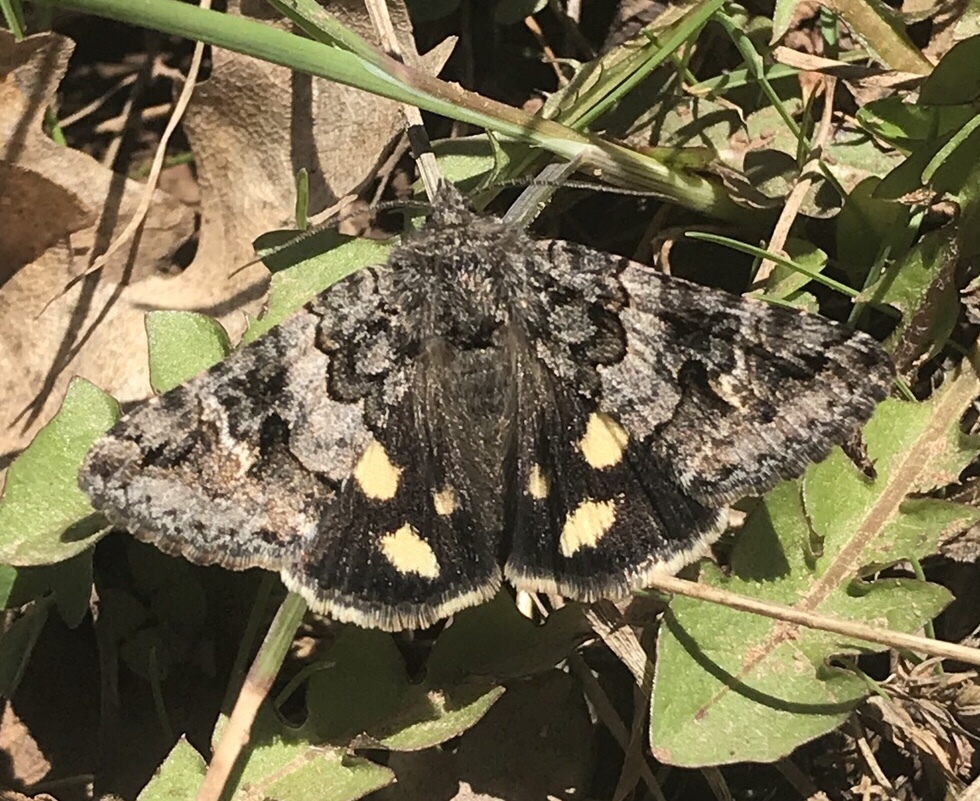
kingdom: Animalia
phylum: Arthropoda
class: Insecta
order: Lepidoptera
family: Erebidae
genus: Litocala
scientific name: Litocala sexsignata
